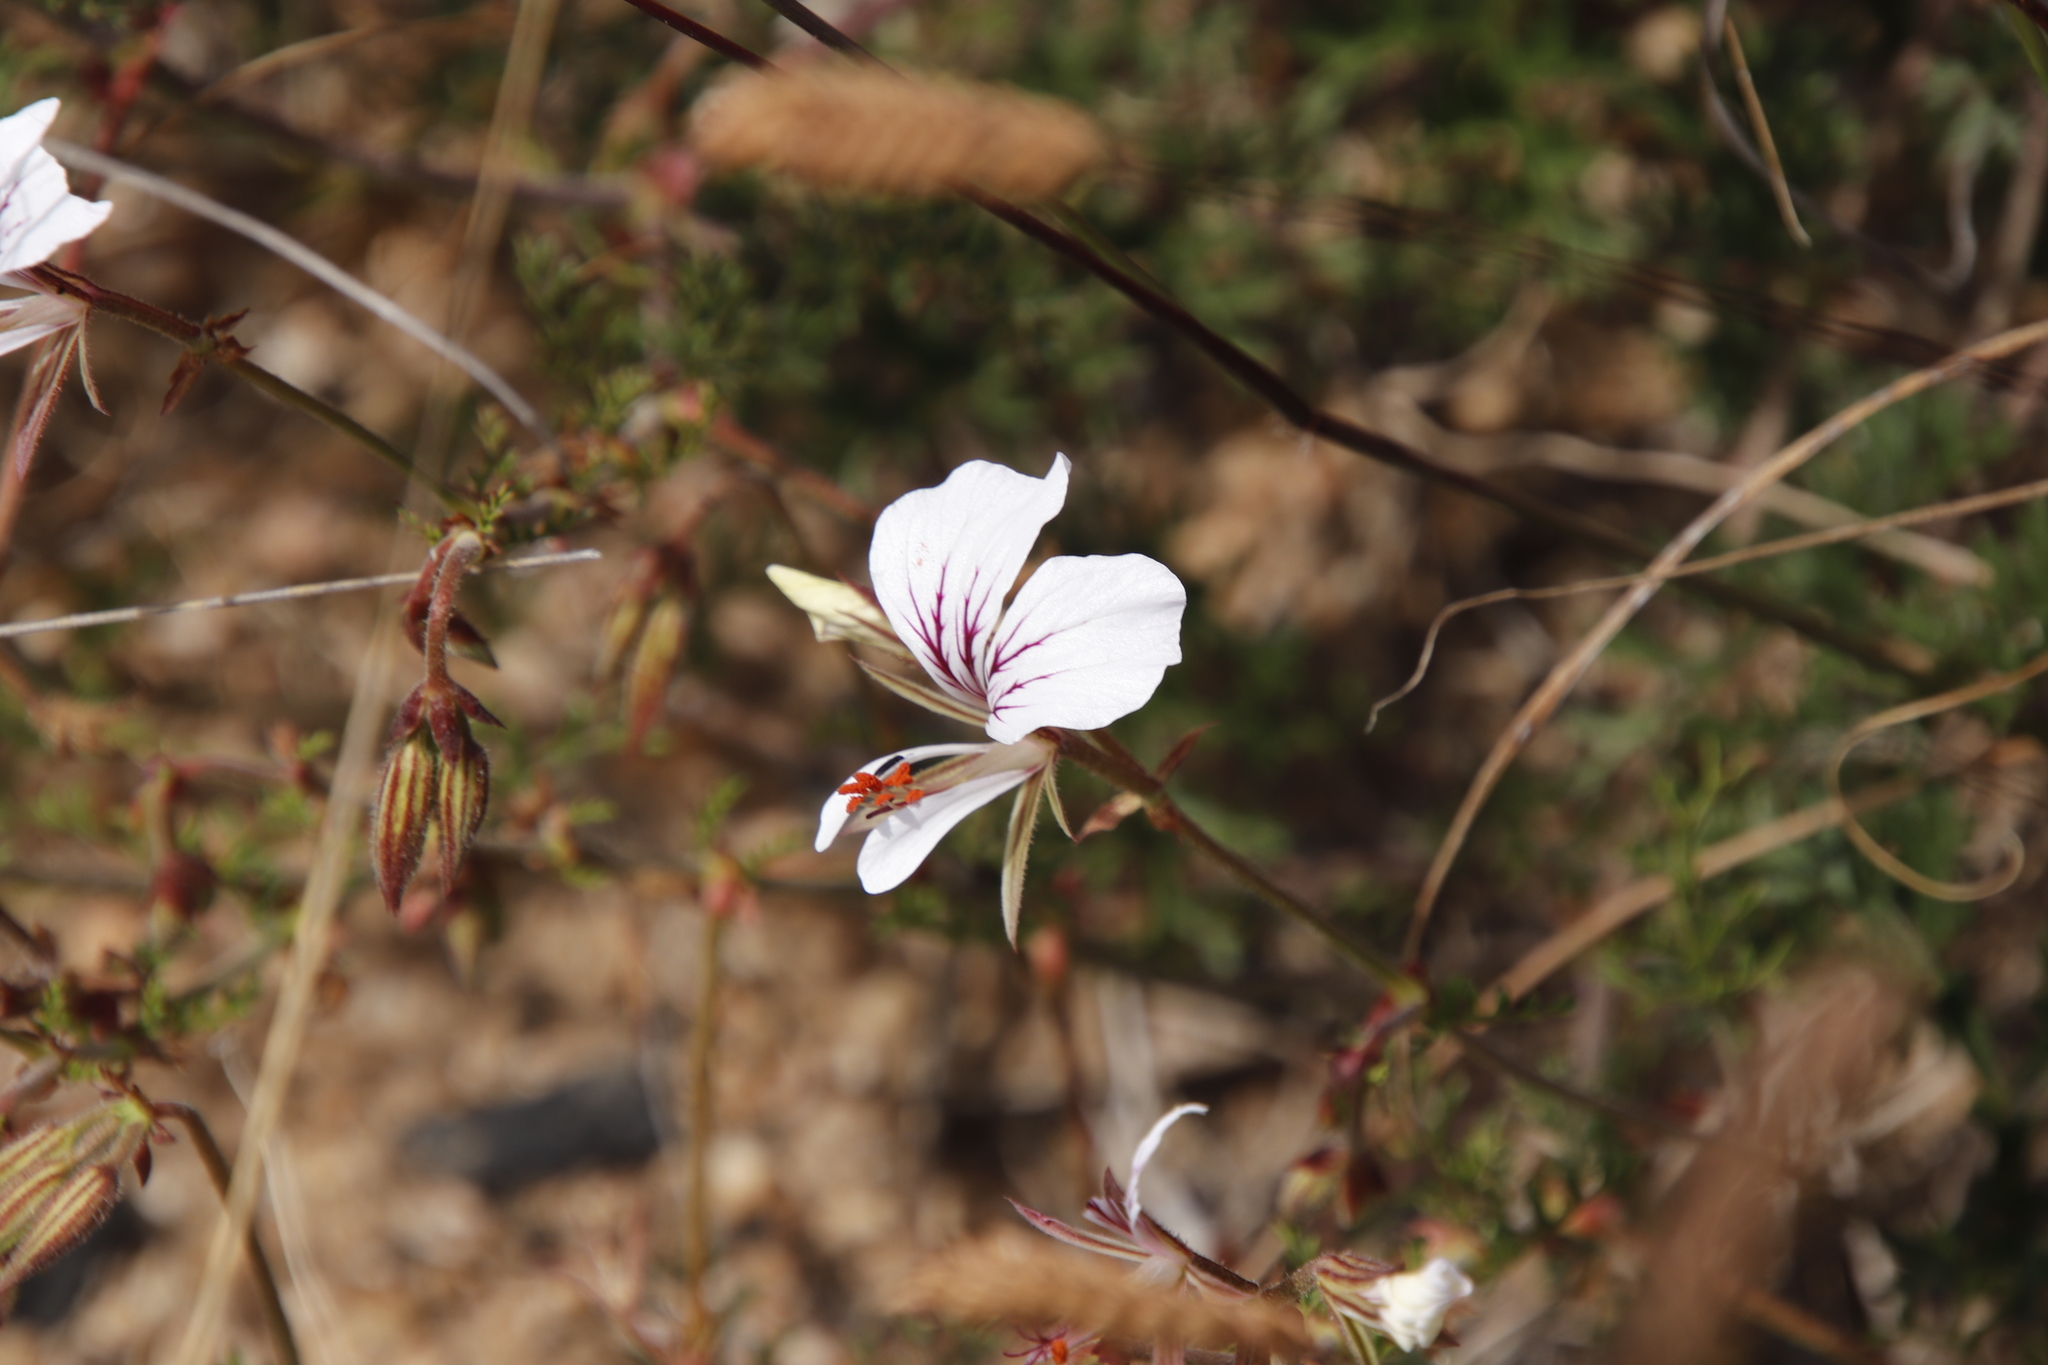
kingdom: Plantae
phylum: Tracheophyta
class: Magnoliopsida
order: Geraniales
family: Geraniaceae
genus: Pelargonium
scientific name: Pelargonium longicaule
